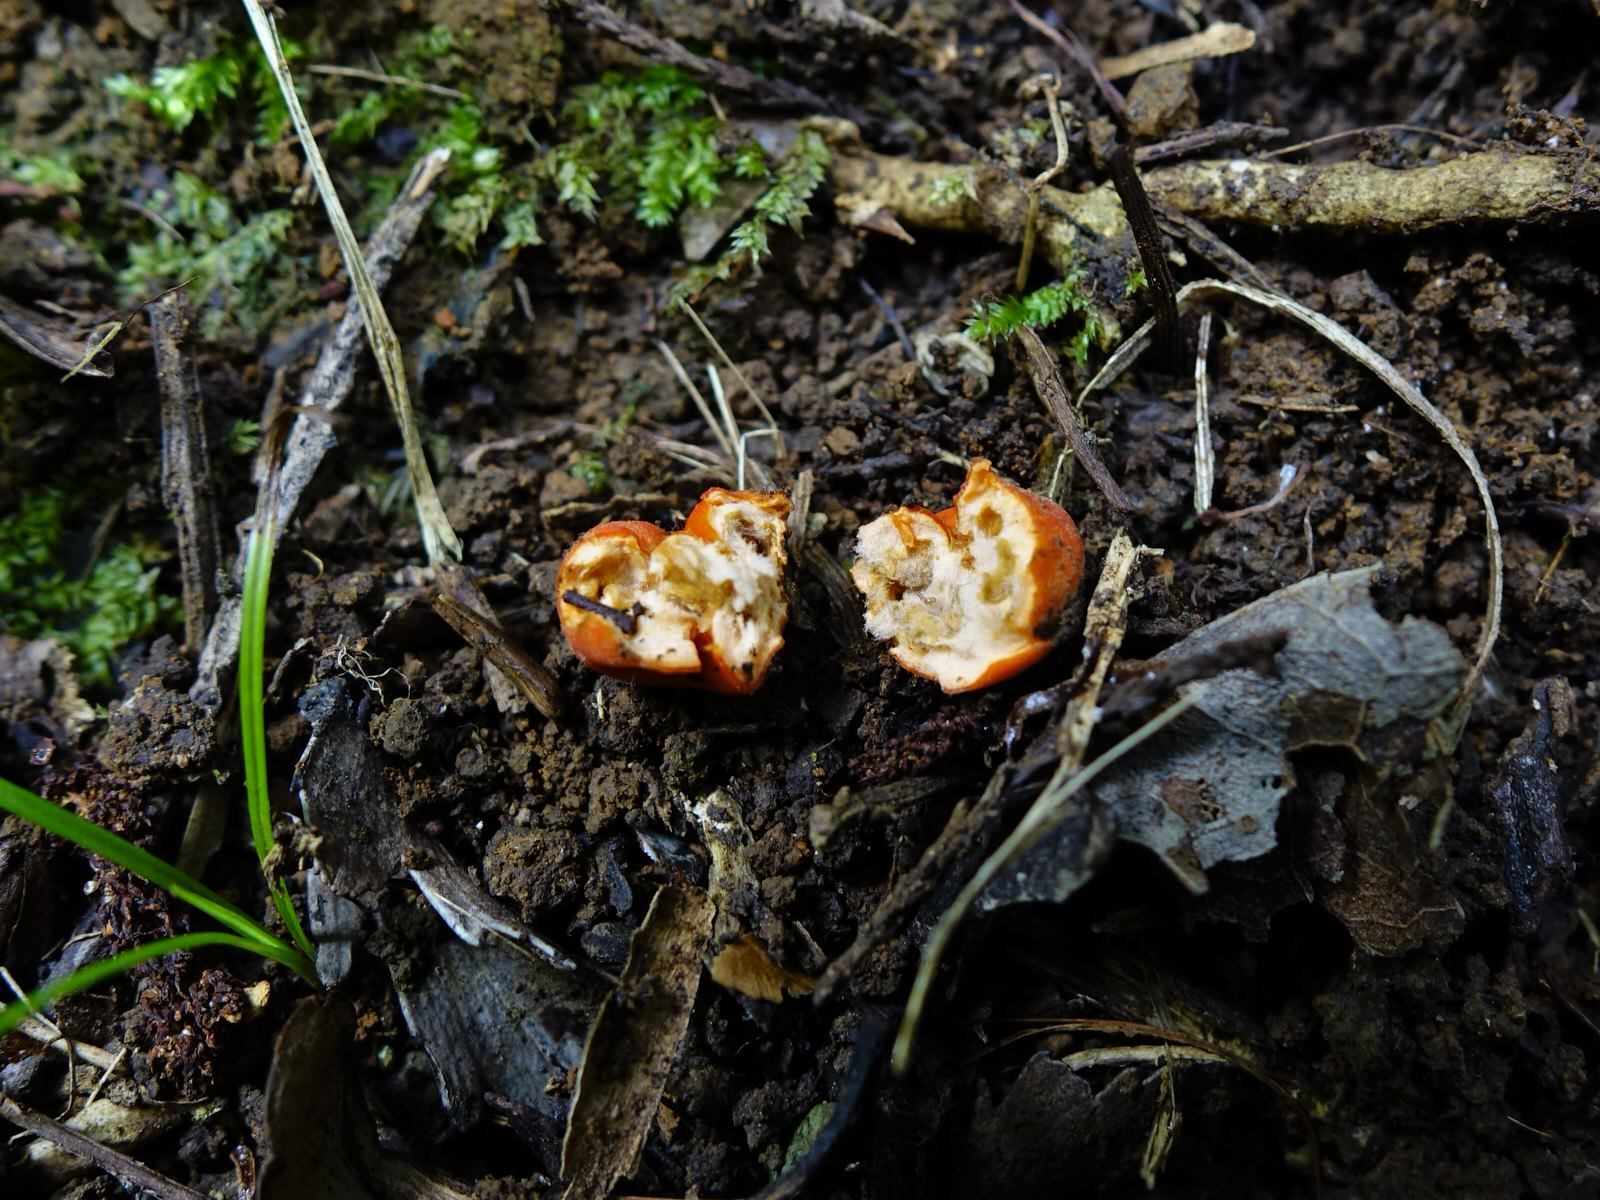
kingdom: Fungi
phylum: Ascomycota
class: Pezizomycetes
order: Pezizales
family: Pyronemataceae
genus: Paurocotylis
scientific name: Paurocotylis pila
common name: Scarlet berry truffle
